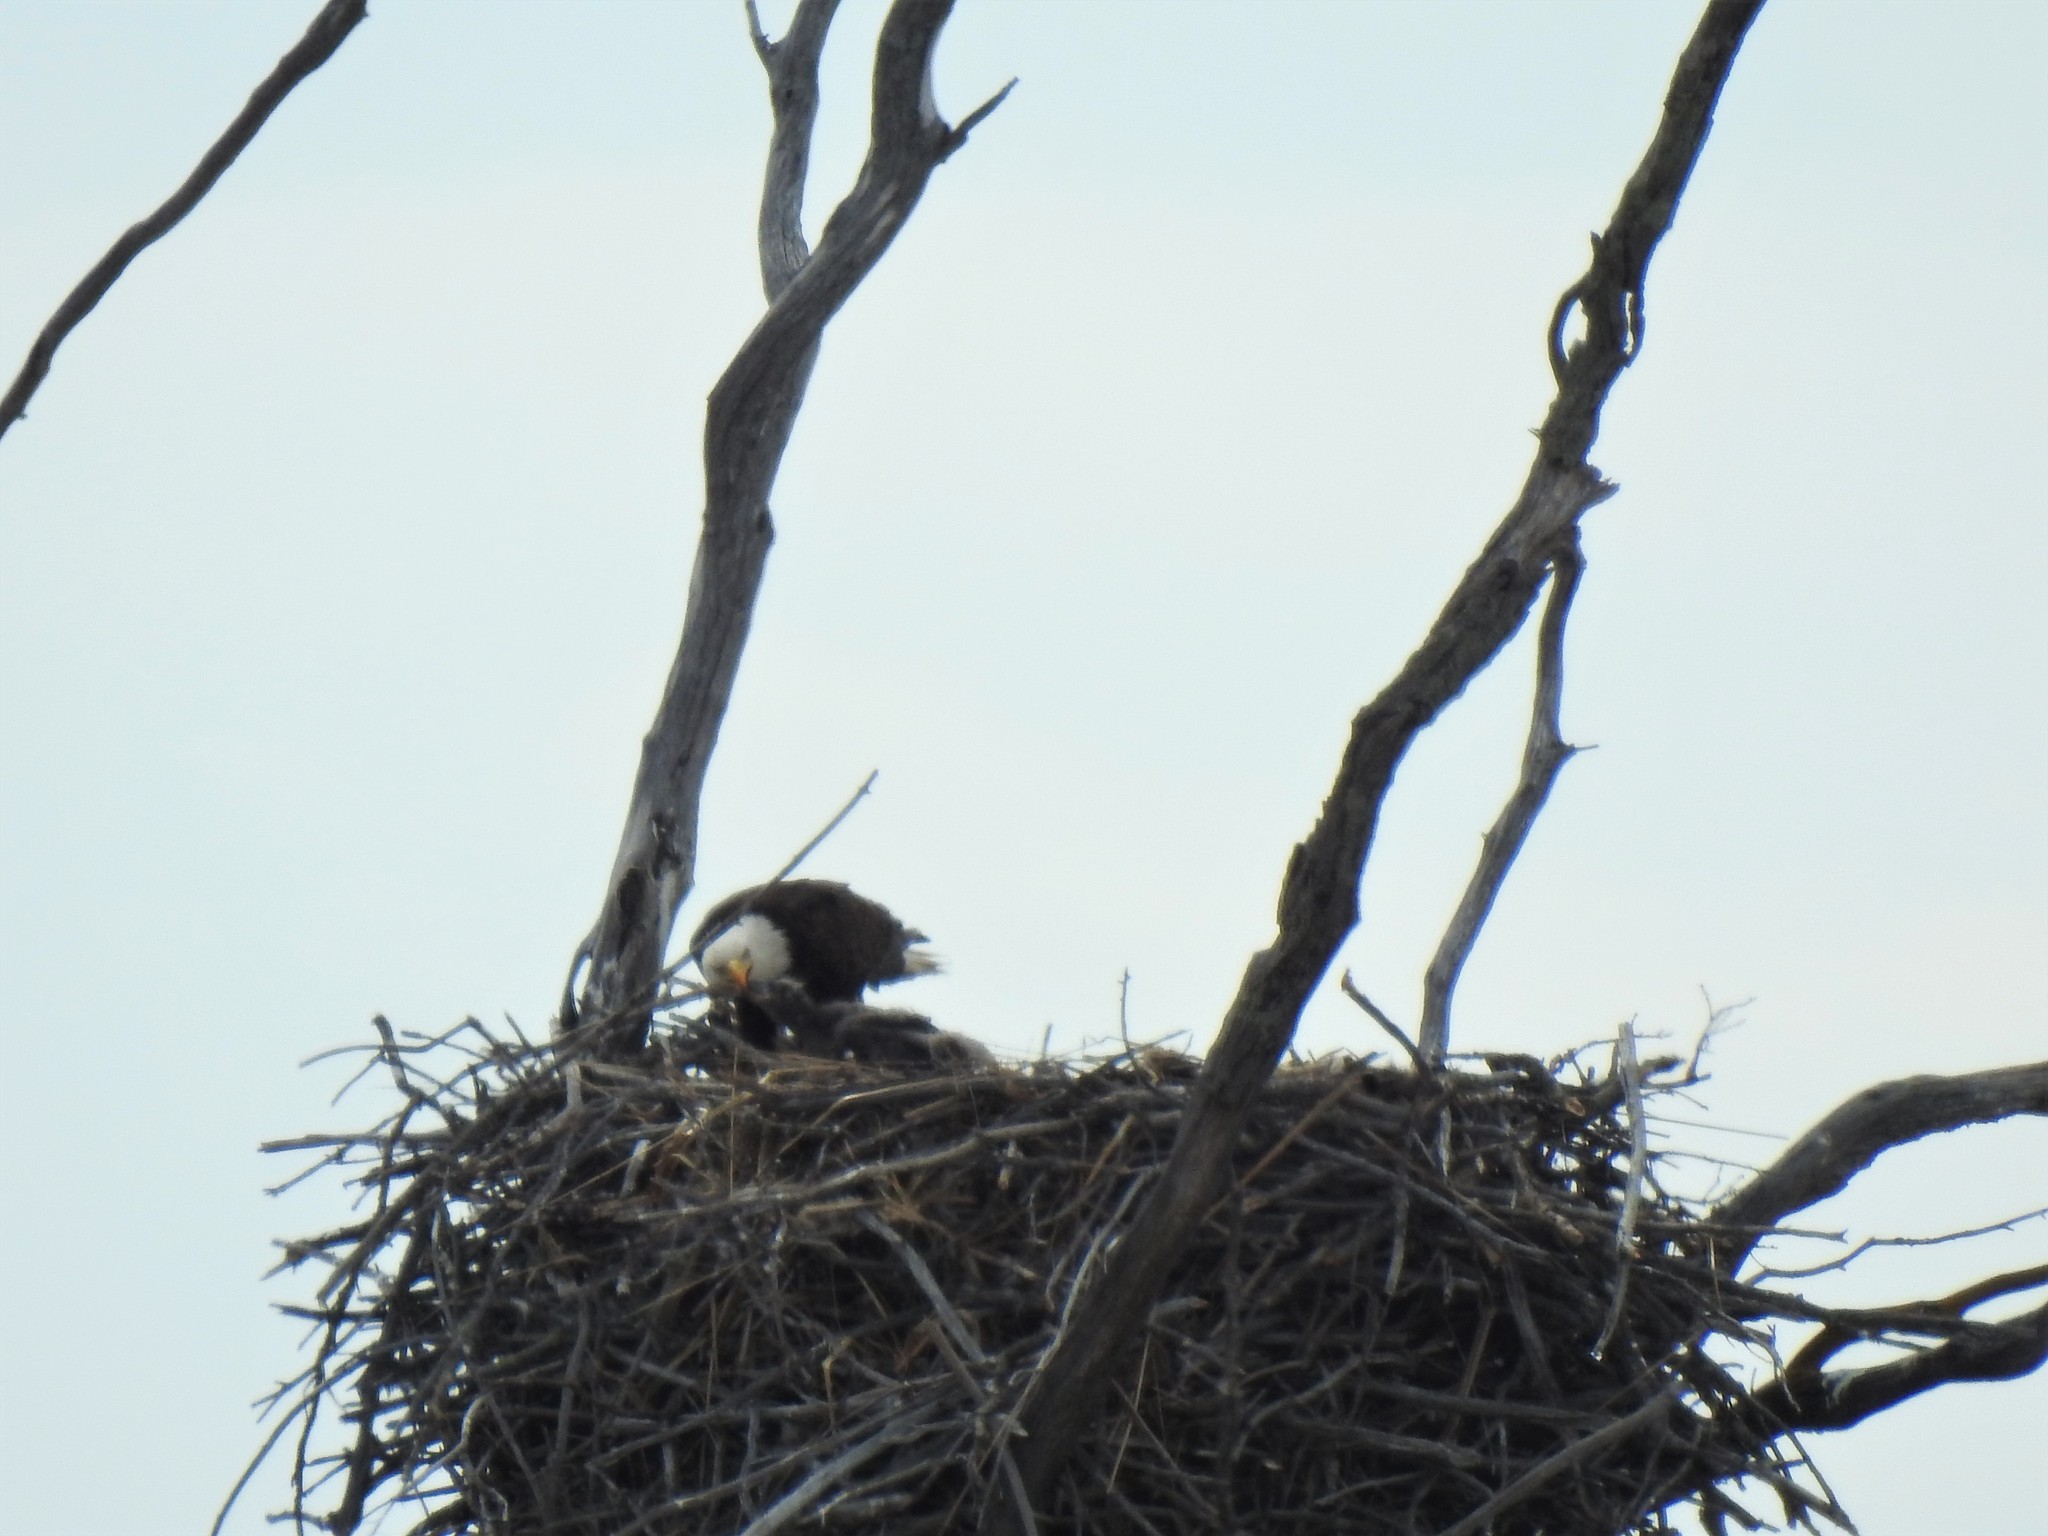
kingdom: Animalia
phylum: Chordata
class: Aves
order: Accipitriformes
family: Accipitridae
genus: Haliaeetus
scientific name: Haliaeetus leucocephalus
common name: Bald eagle
